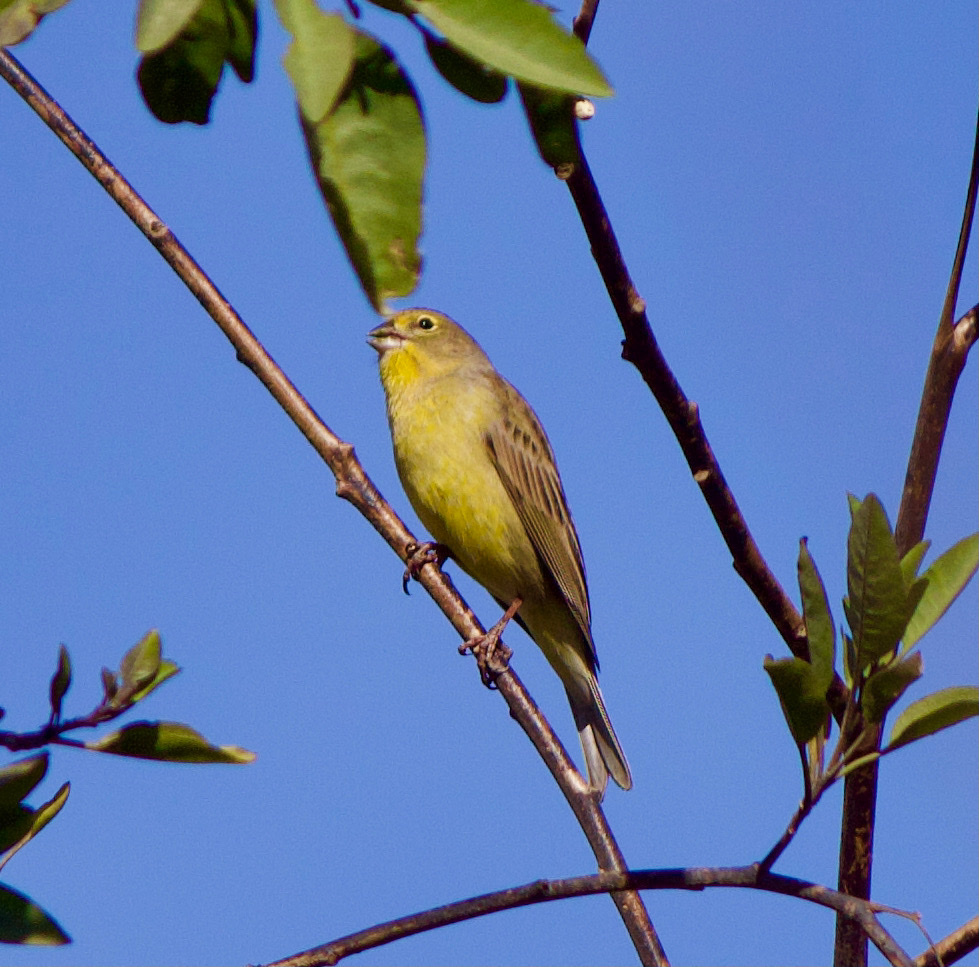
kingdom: Animalia
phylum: Chordata
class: Aves
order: Passeriformes
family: Thraupidae
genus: Sicalis
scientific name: Sicalis luteola
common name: Grassland yellow-finch
